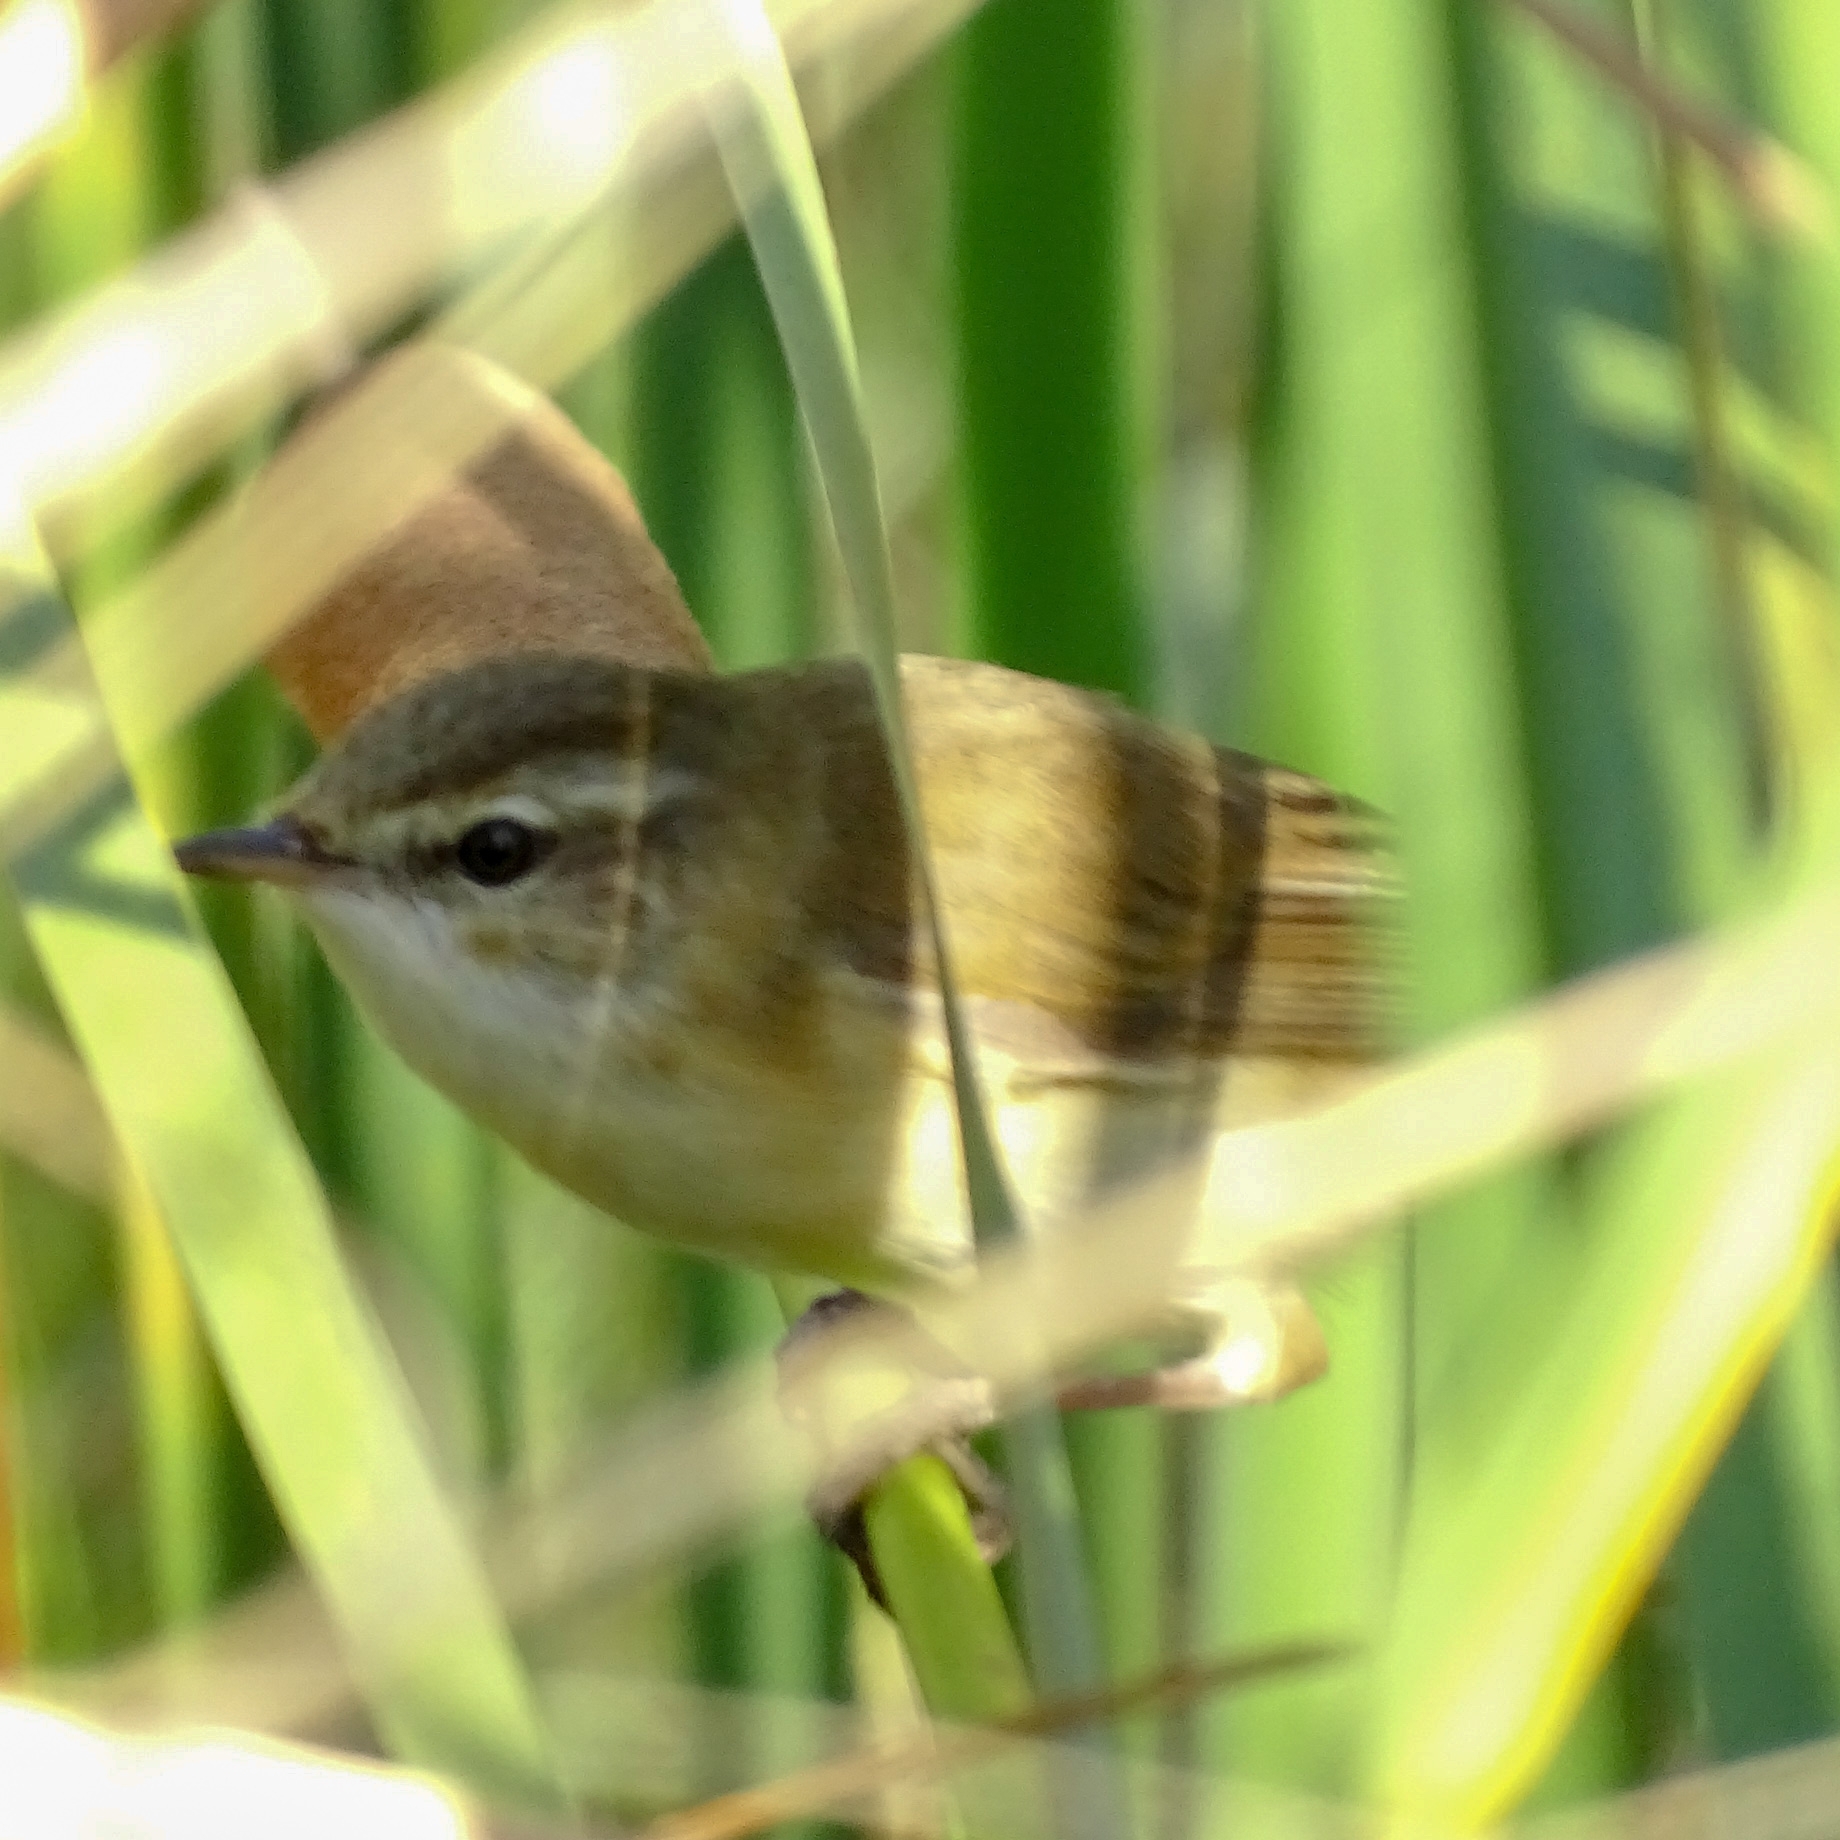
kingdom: Animalia
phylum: Chordata
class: Aves
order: Passeriformes
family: Acrocephalidae
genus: Acrocephalus
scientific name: Acrocephalus agricola
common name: Paddyfield warbler
